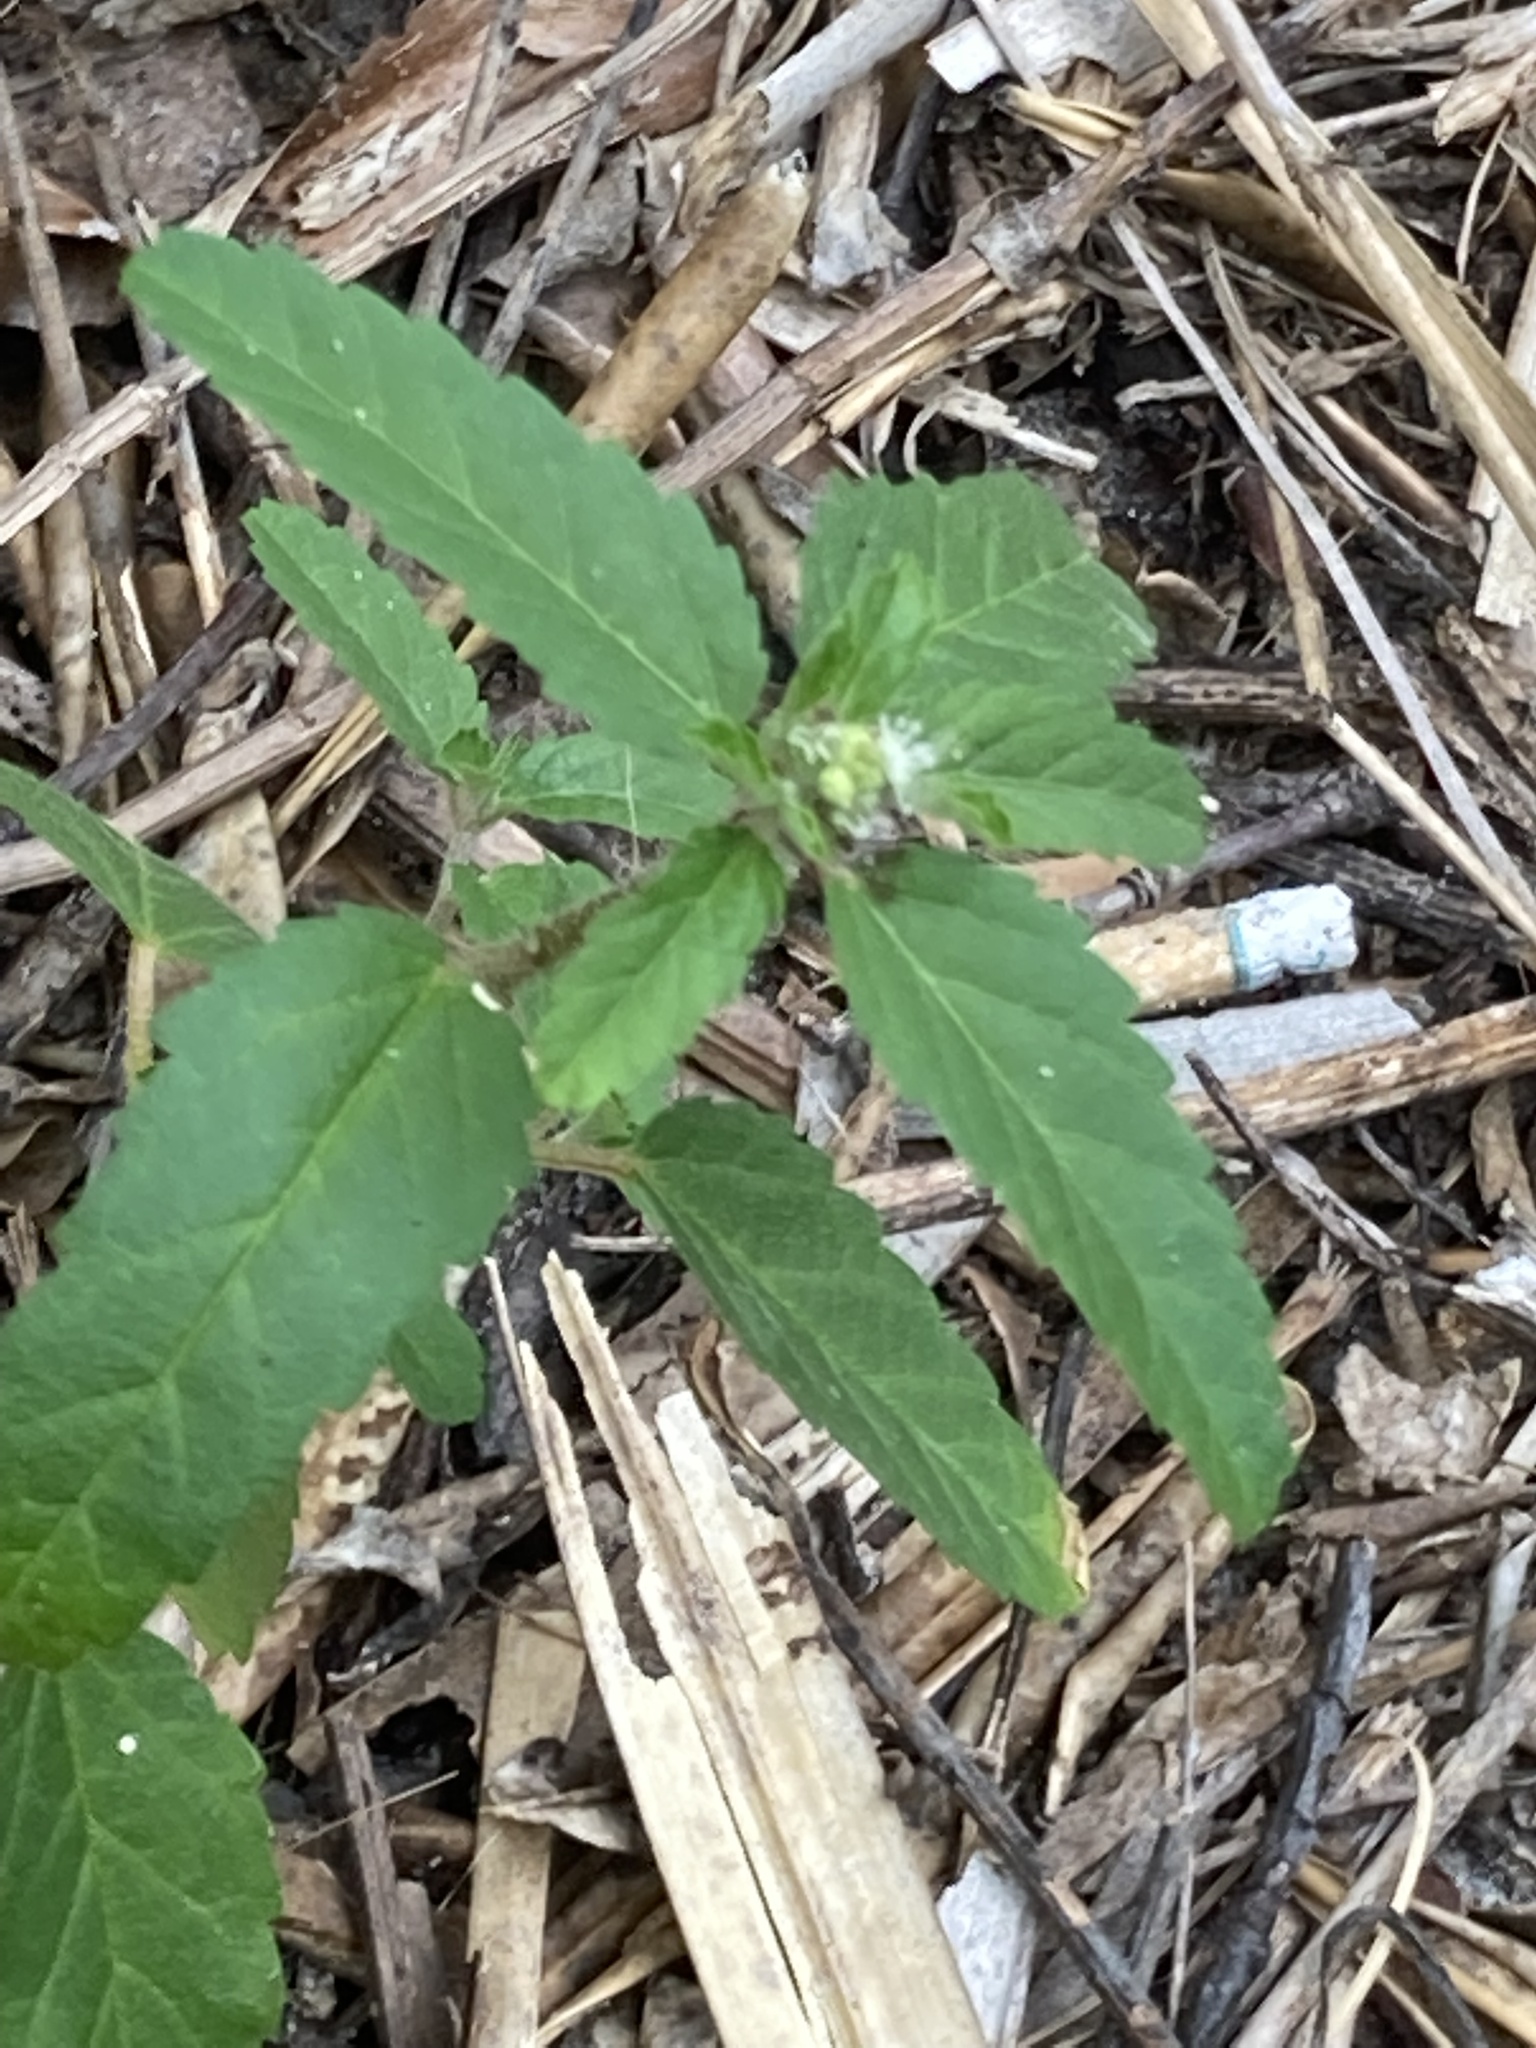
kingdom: Plantae
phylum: Tracheophyta
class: Magnoliopsida
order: Malpighiales
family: Euphorbiaceae
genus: Croton
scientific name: Croton glandulosus
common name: Tropic croton
